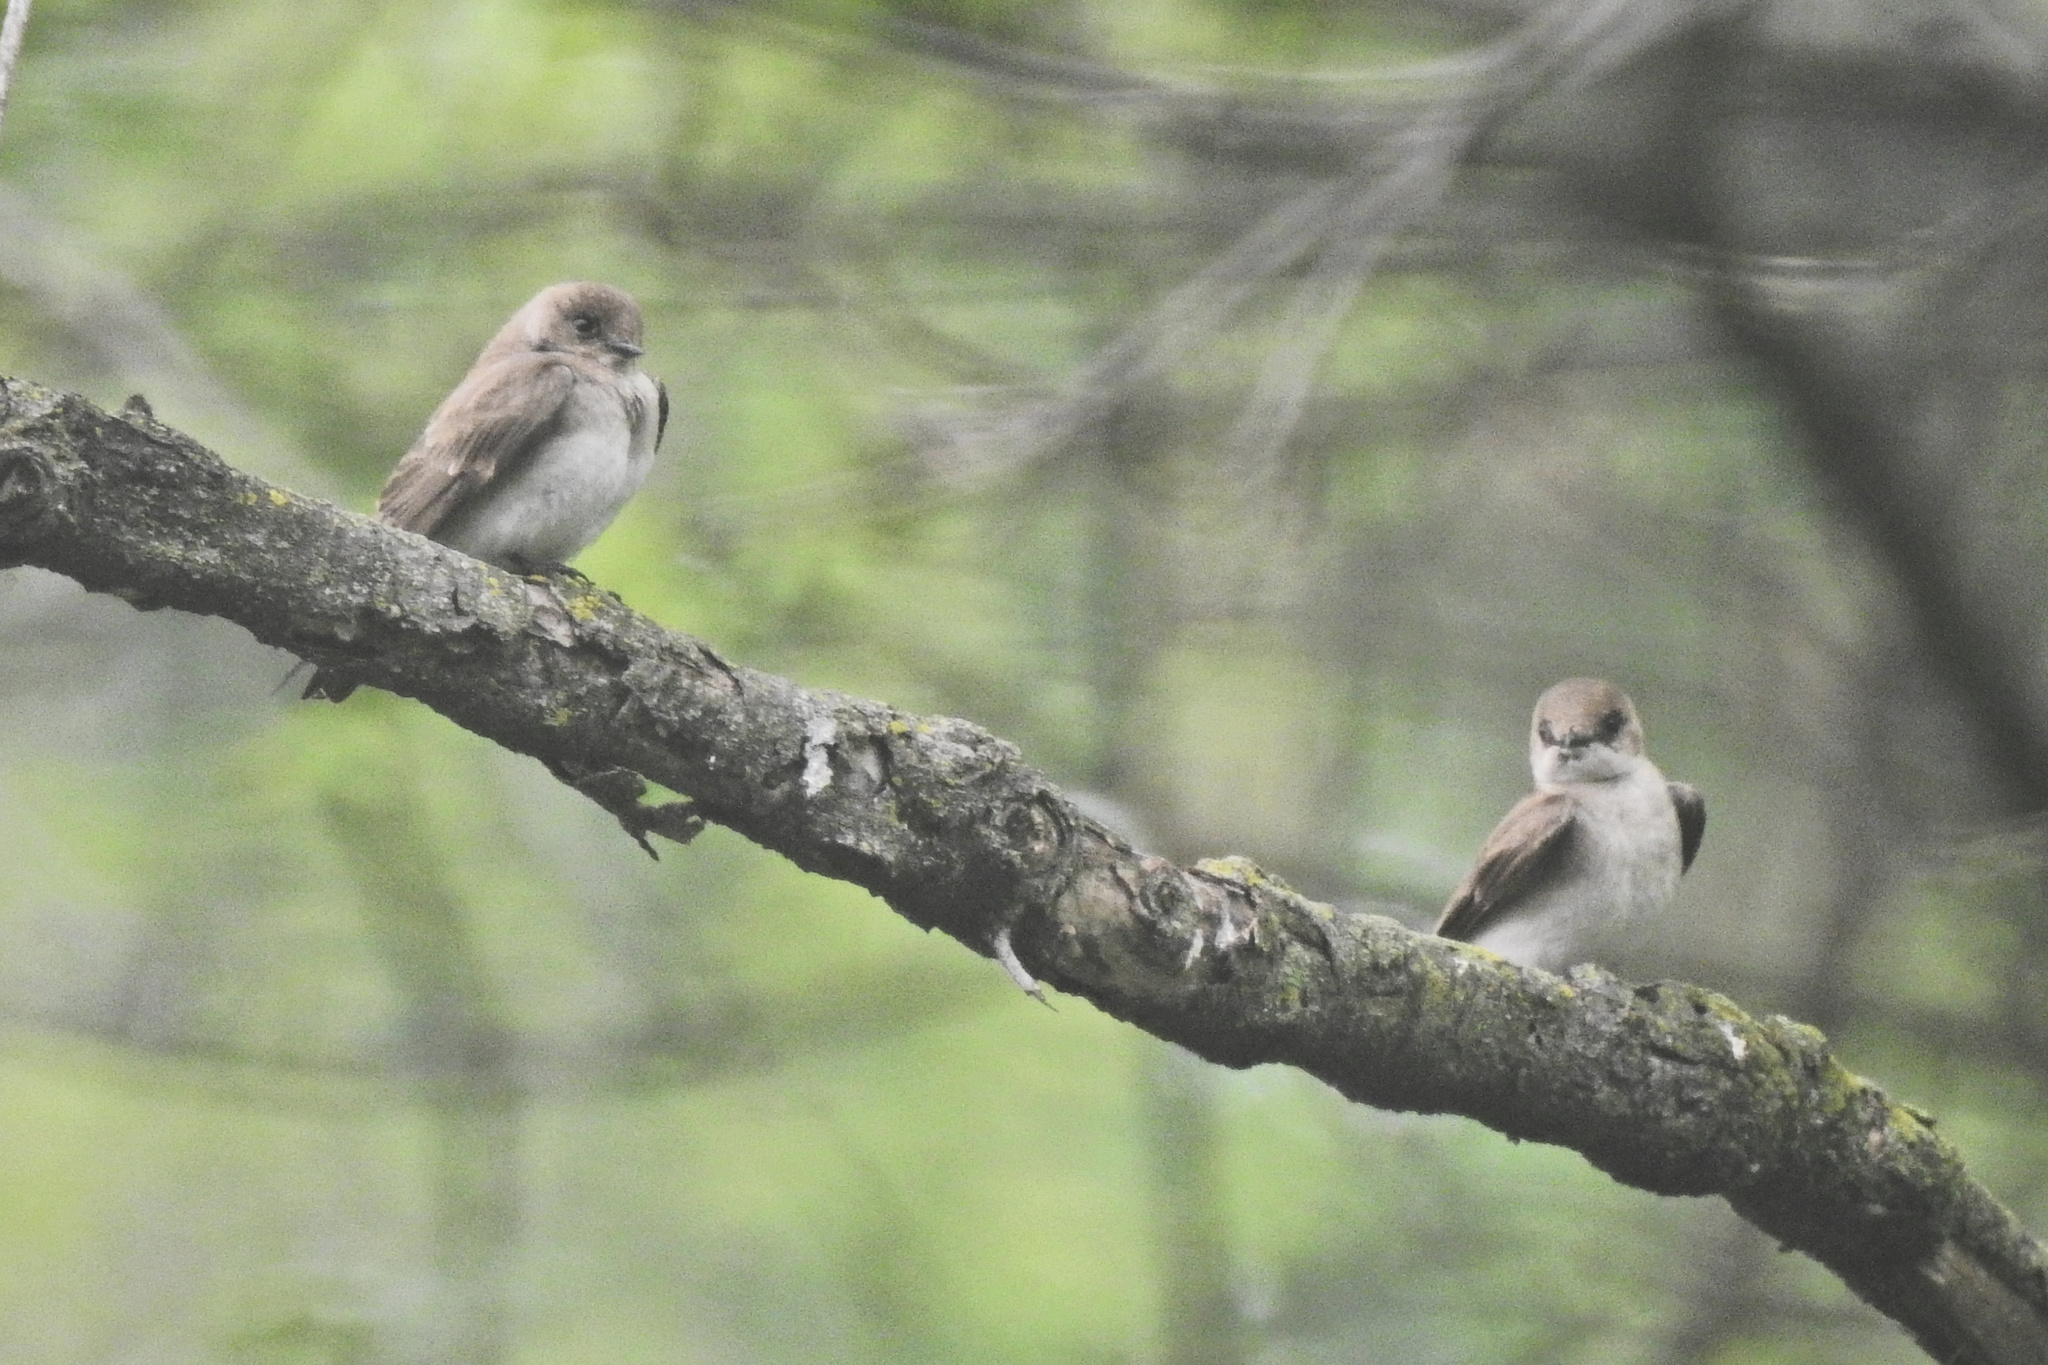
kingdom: Animalia
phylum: Chordata
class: Aves
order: Passeriformes
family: Hirundinidae
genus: Stelgidopteryx
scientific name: Stelgidopteryx serripennis
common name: Northern rough-winged swallow
